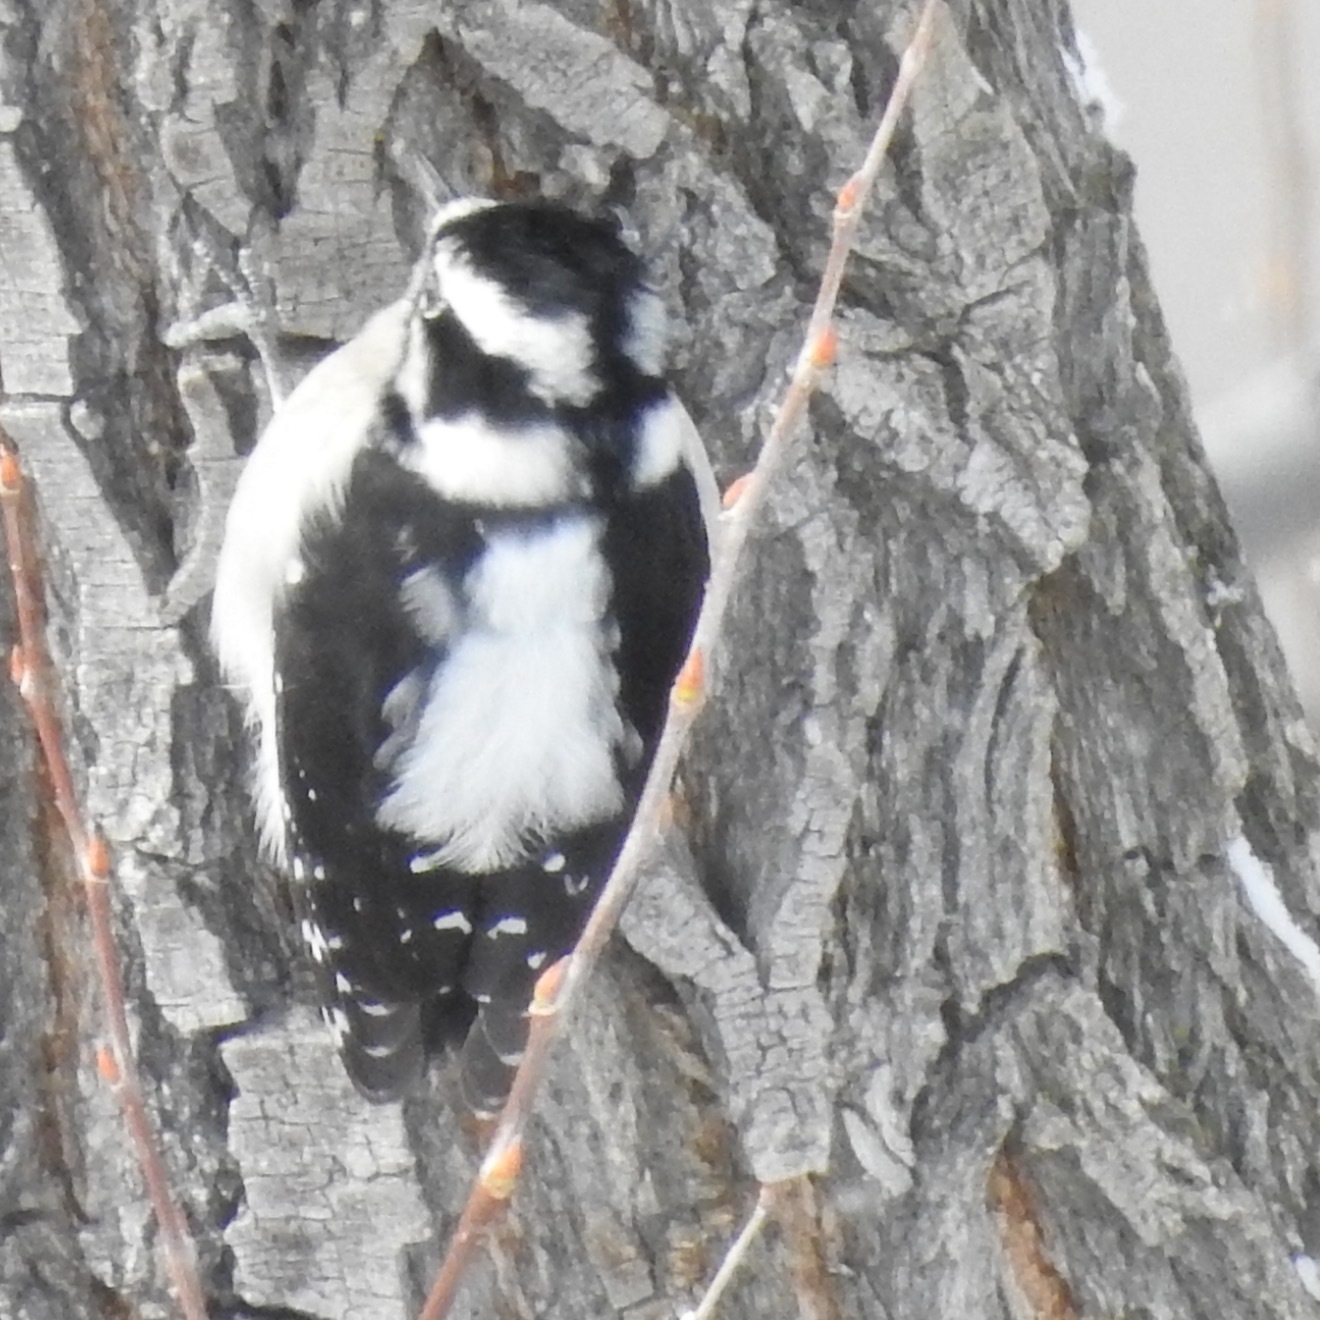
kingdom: Animalia
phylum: Chordata
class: Aves
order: Piciformes
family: Picidae
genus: Dryobates
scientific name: Dryobates pubescens
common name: Downy woodpecker
